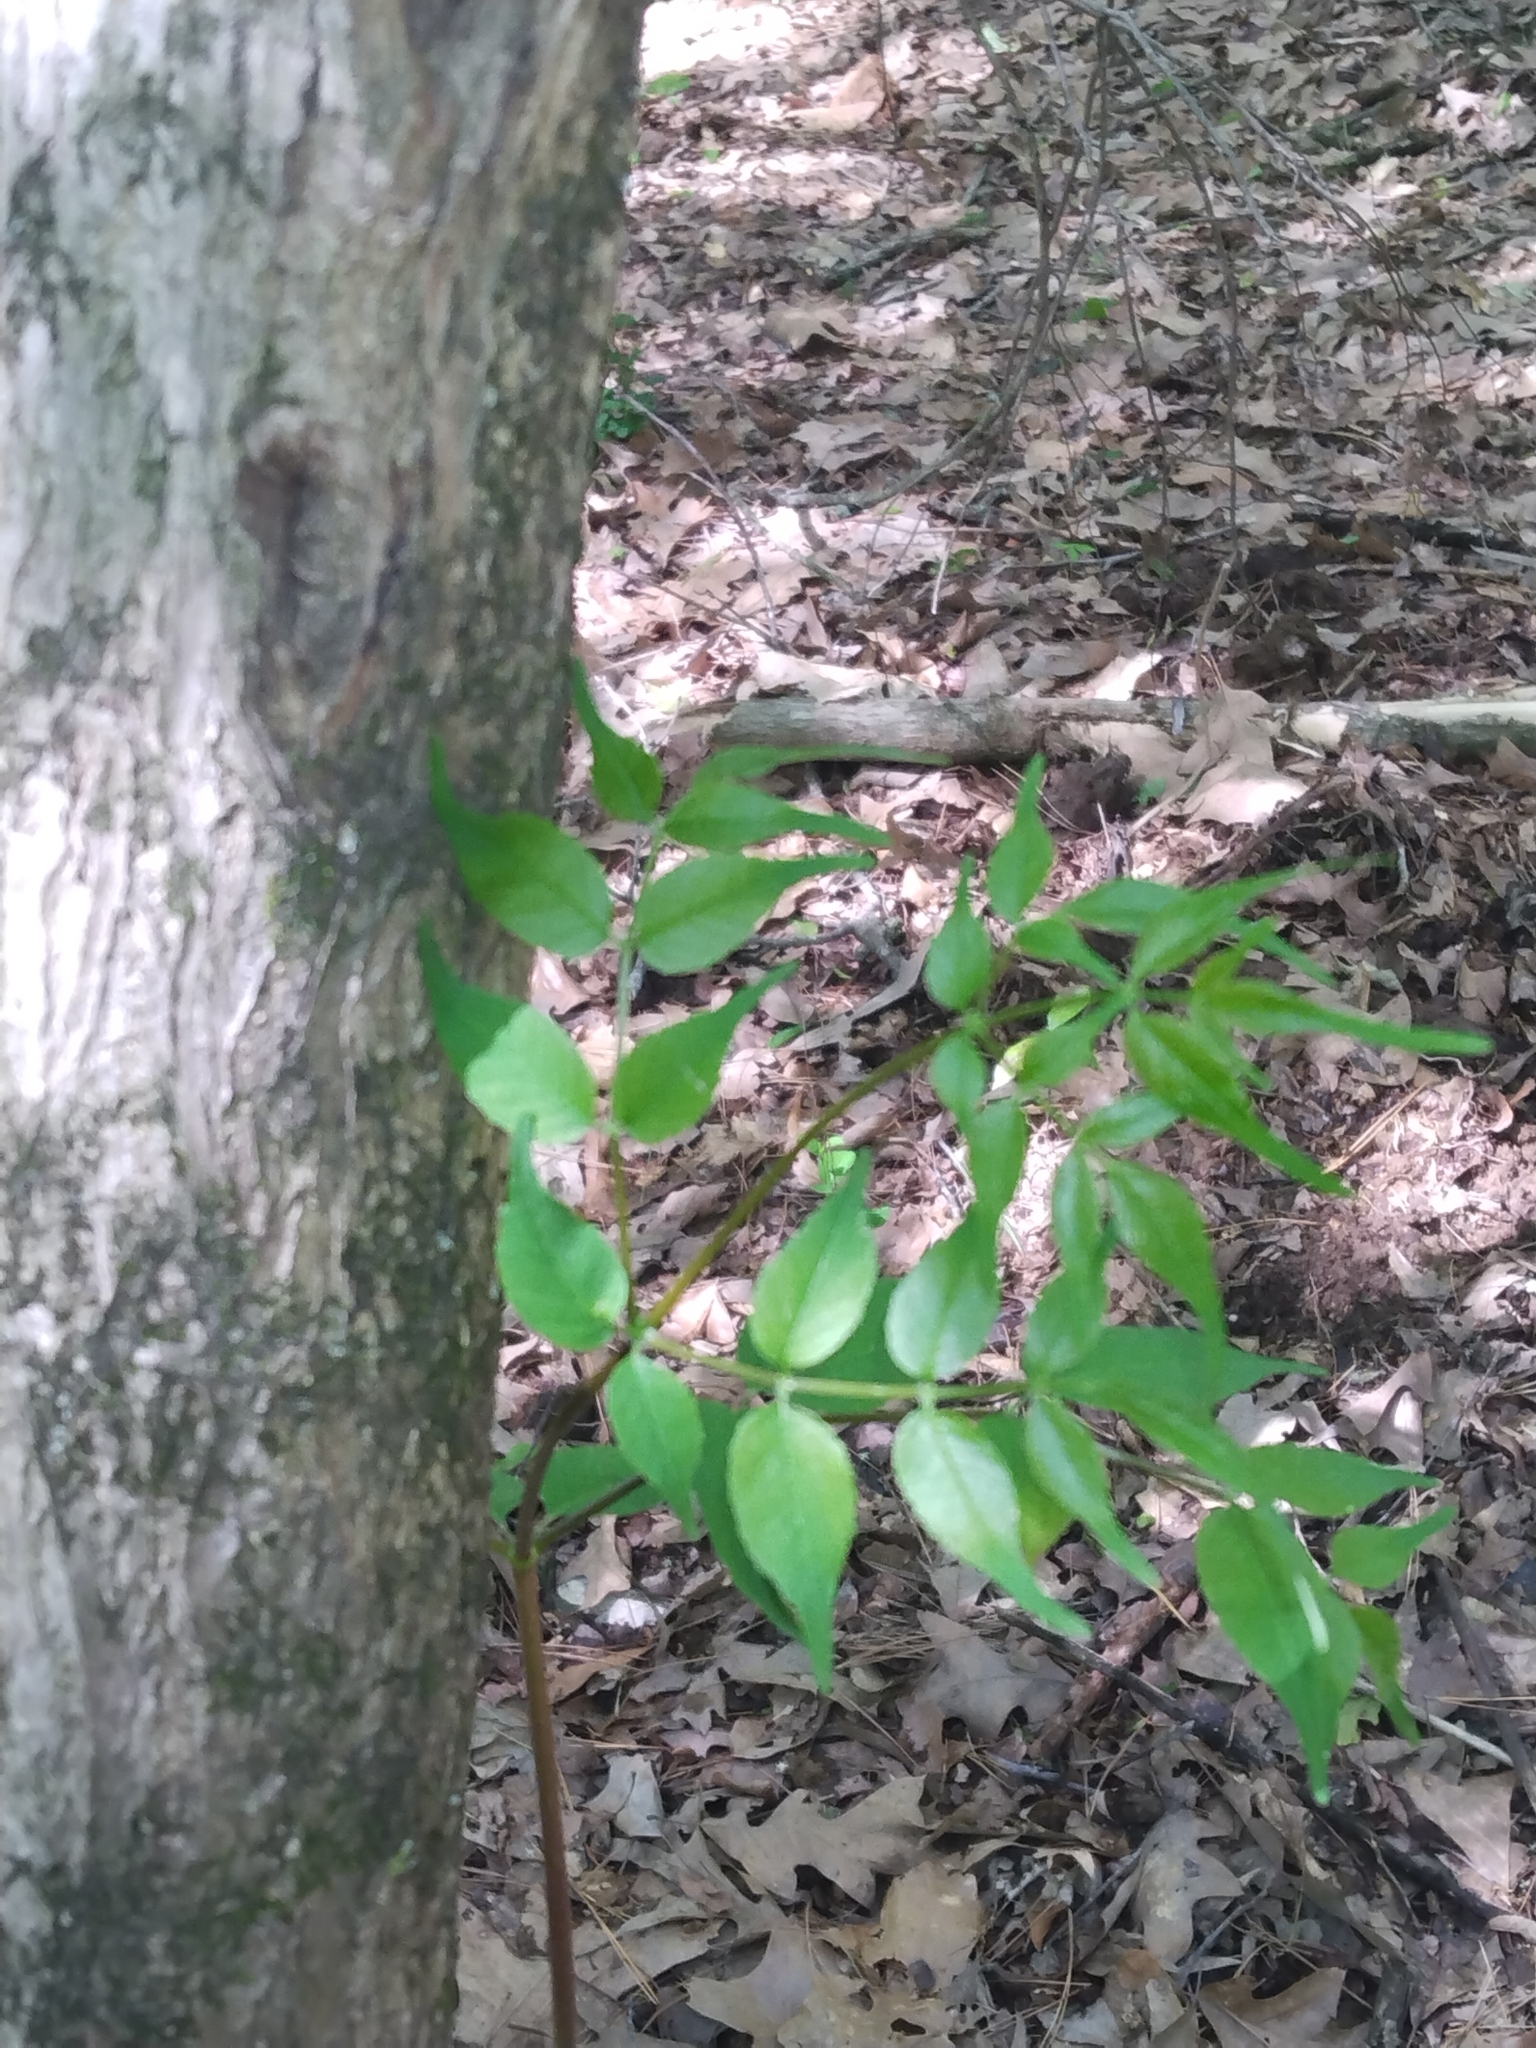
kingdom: Plantae
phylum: Tracheophyta
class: Magnoliopsida
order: Apiales
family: Araliaceae
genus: Aralia
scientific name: Aralia spinosa
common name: Hercules'-club
